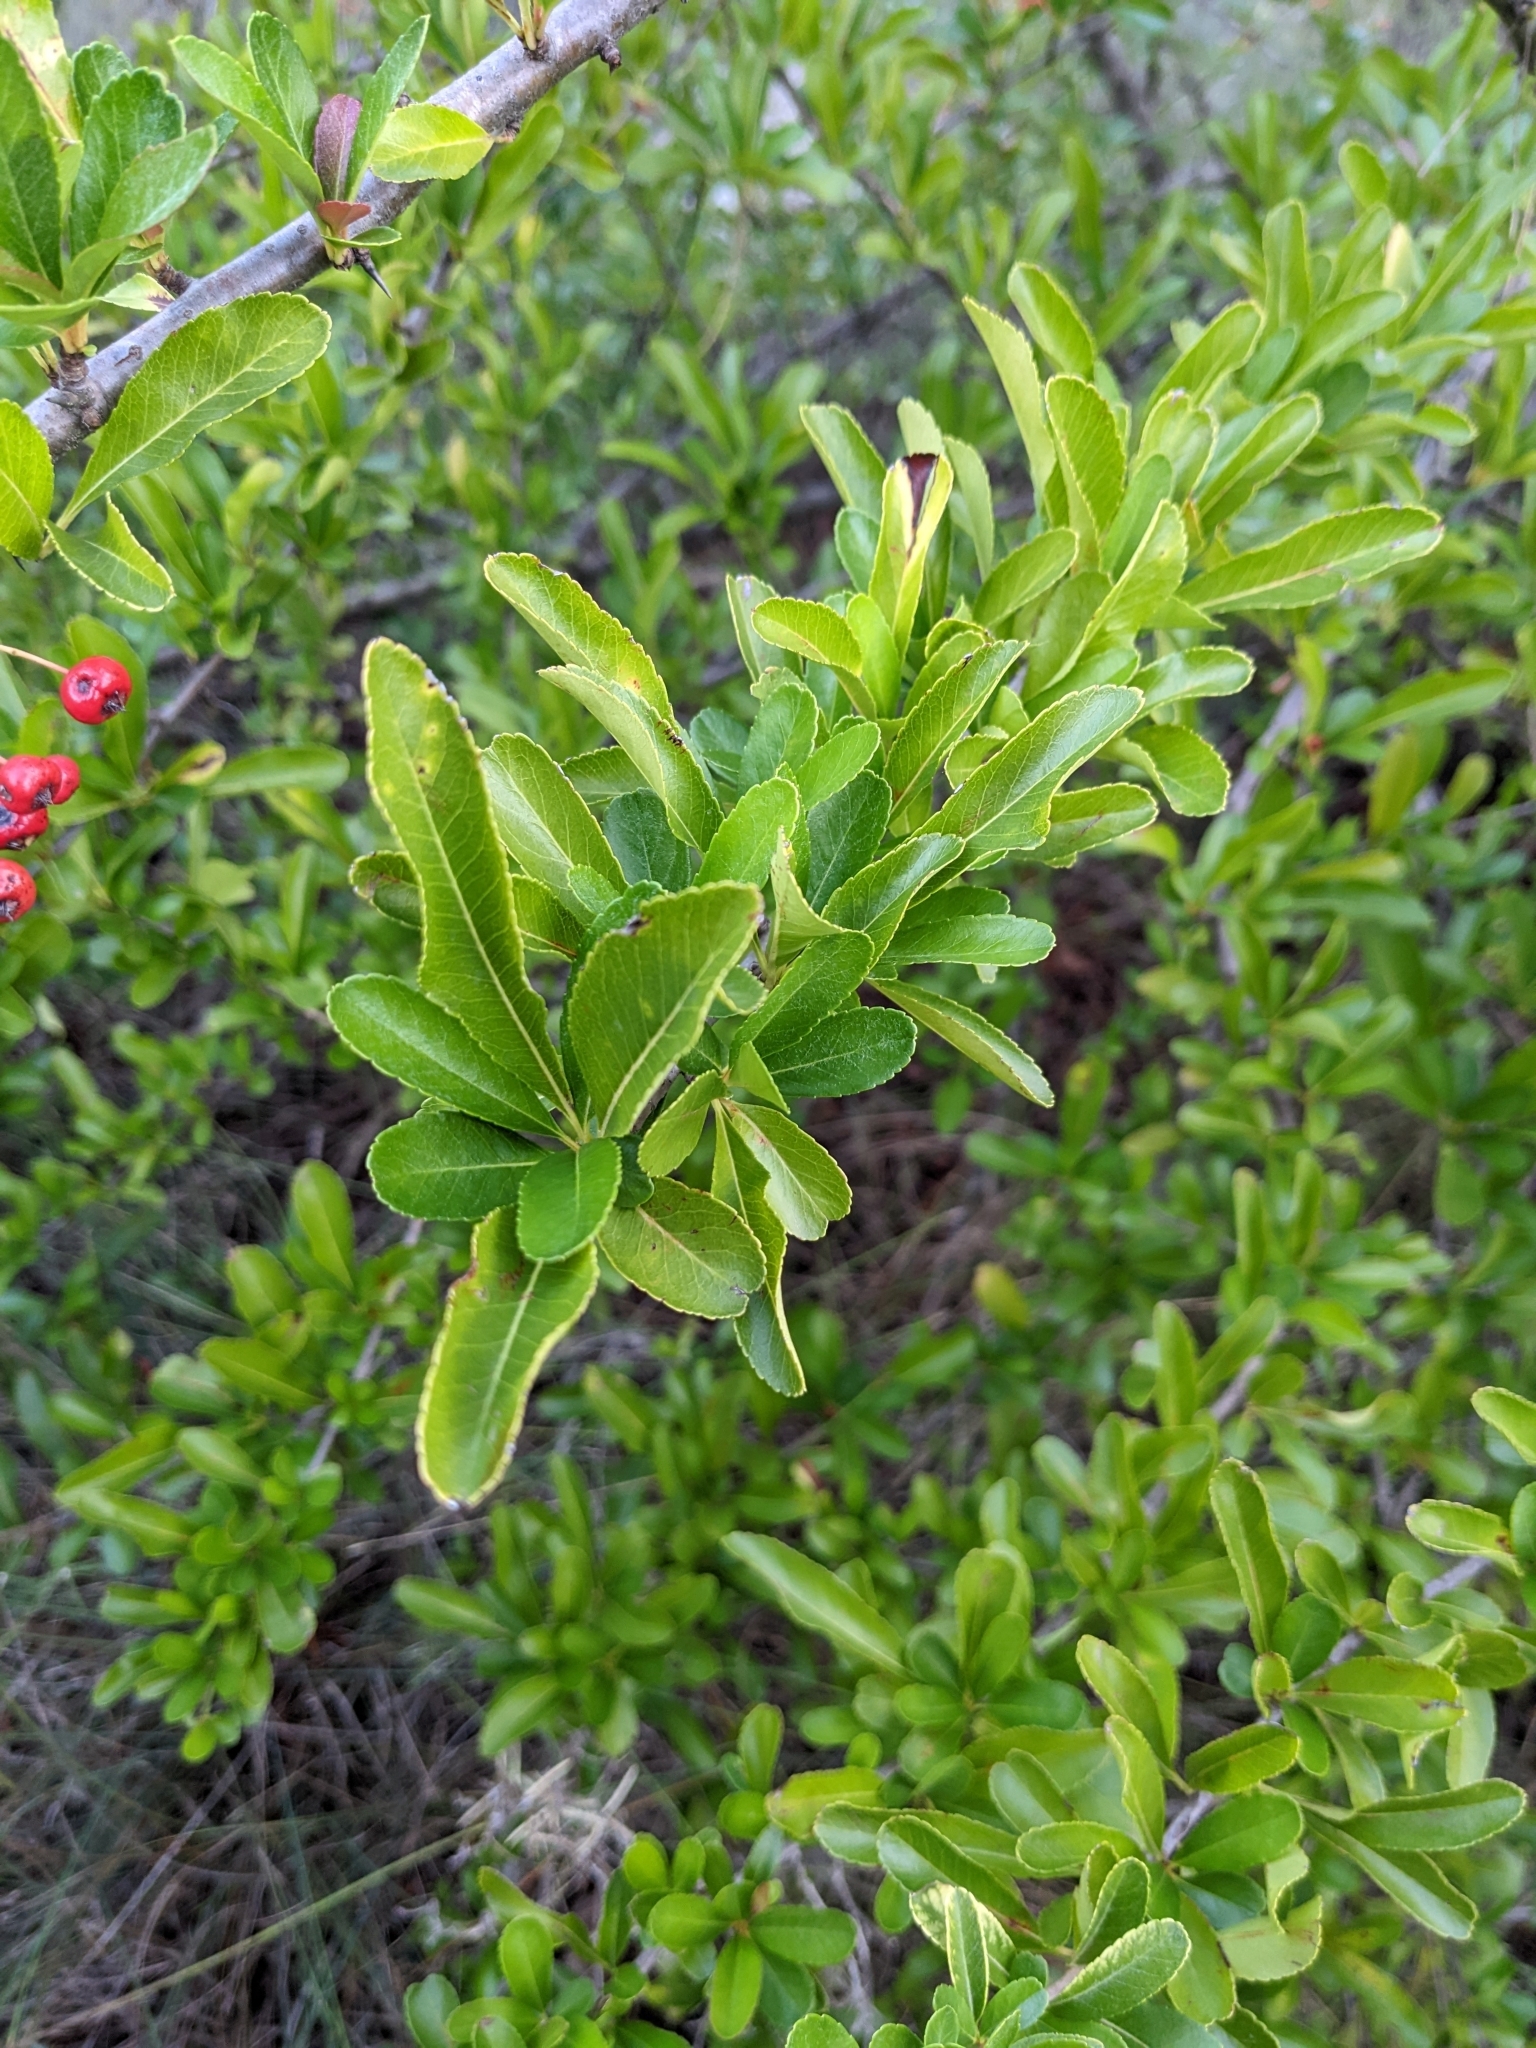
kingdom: Plantae
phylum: Tracheophyta
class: Magnoliopsida
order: Rosales
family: Rosaceae
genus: Pyracantha
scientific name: Pyracantha coccinea
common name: Firethorn
